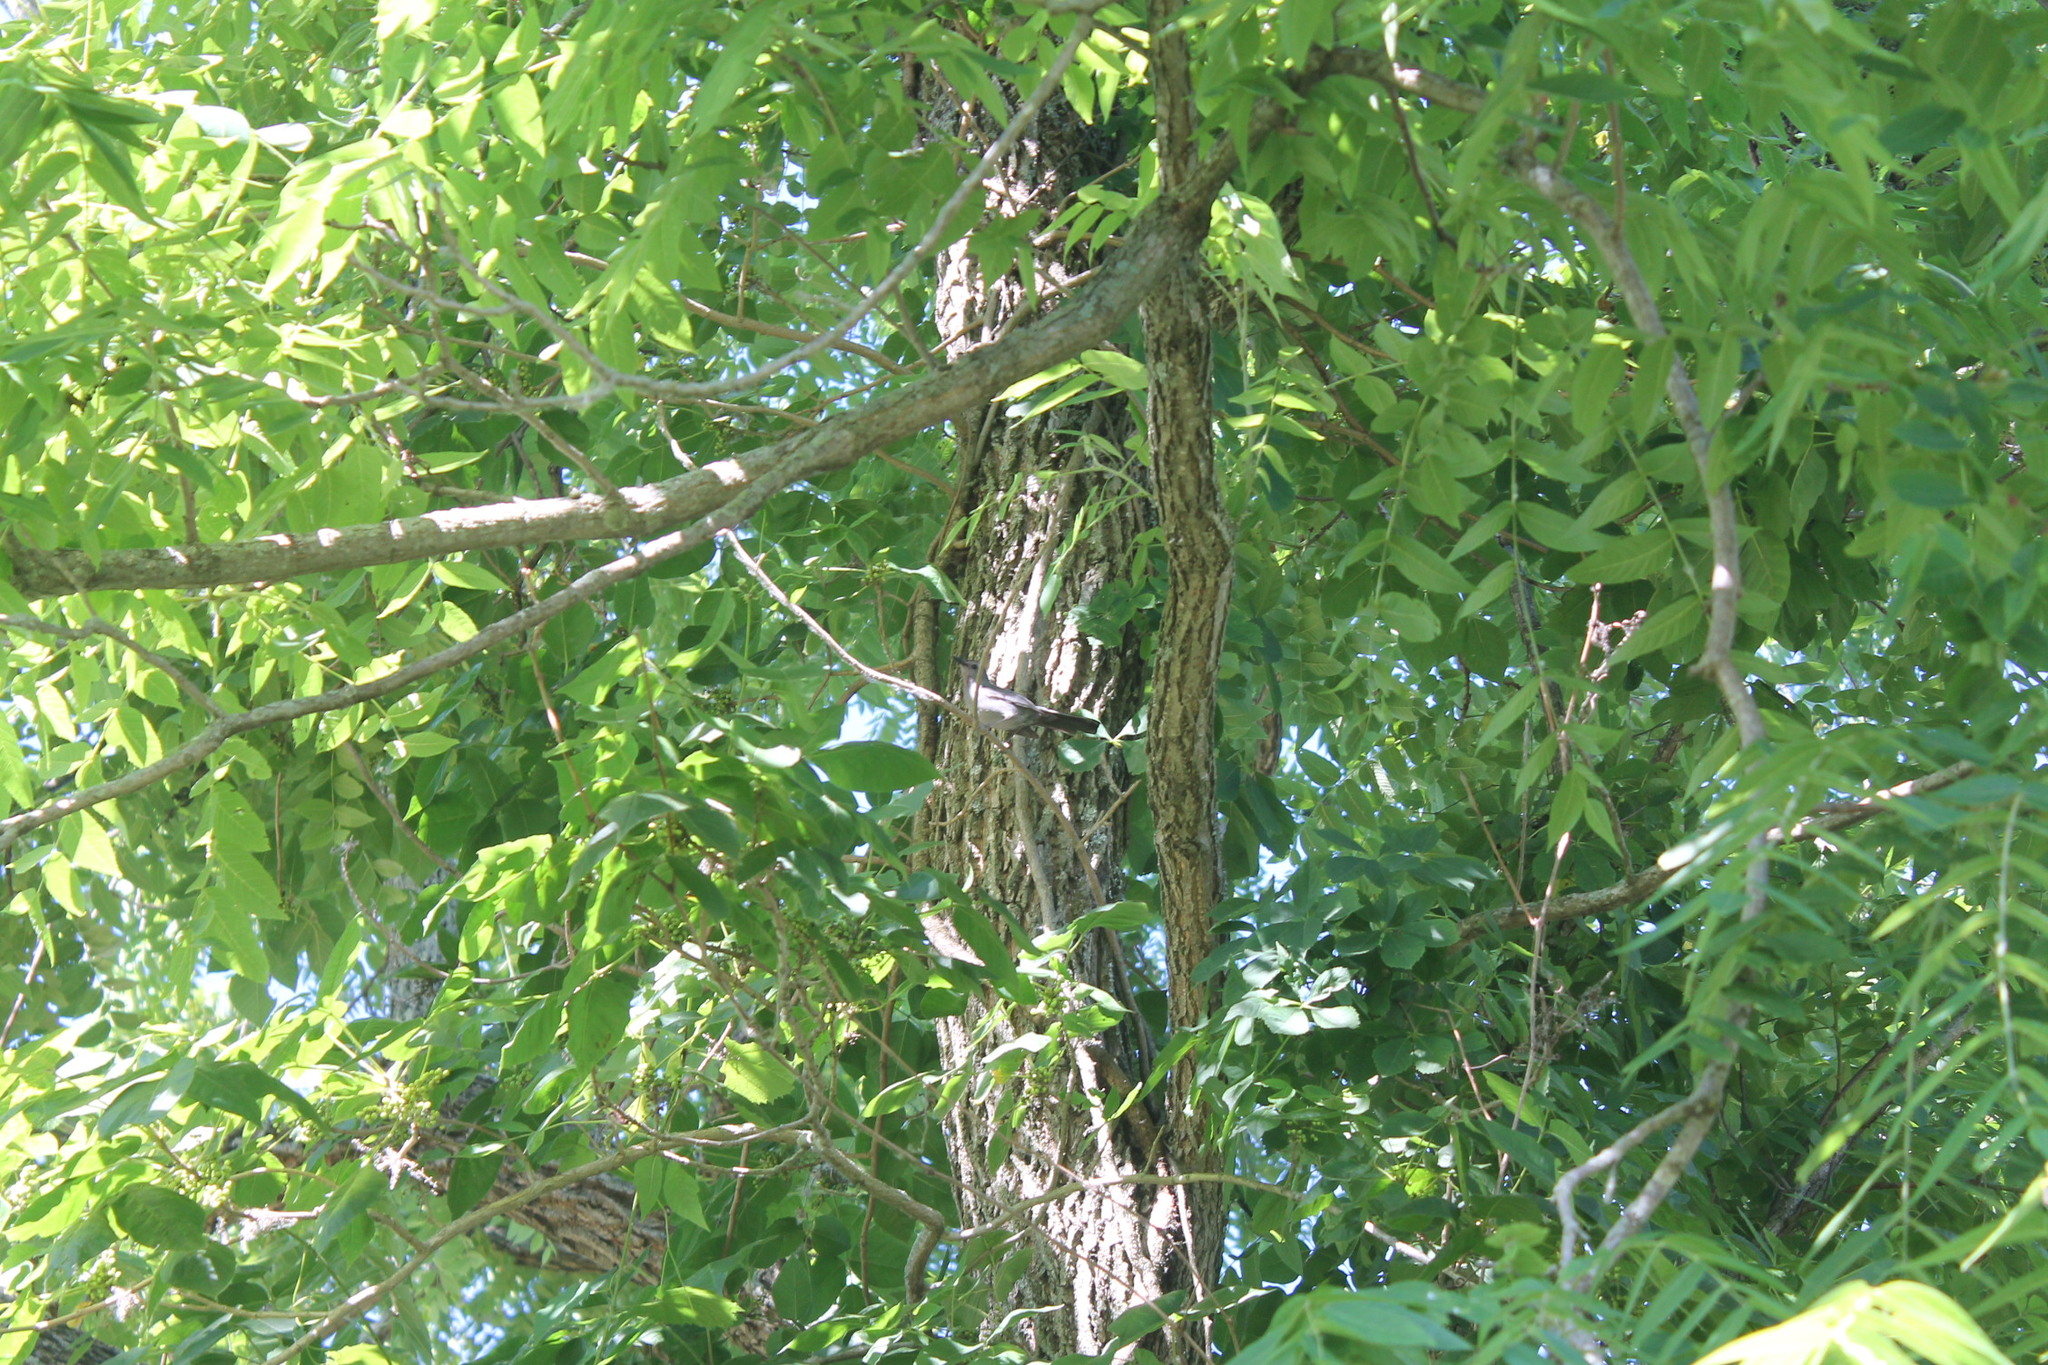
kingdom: Animalia
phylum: Chordata
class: Aves
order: Passeriformes
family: Mimidae
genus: Dumetella
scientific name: Dumetella carolinensis
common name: Gray catbird
